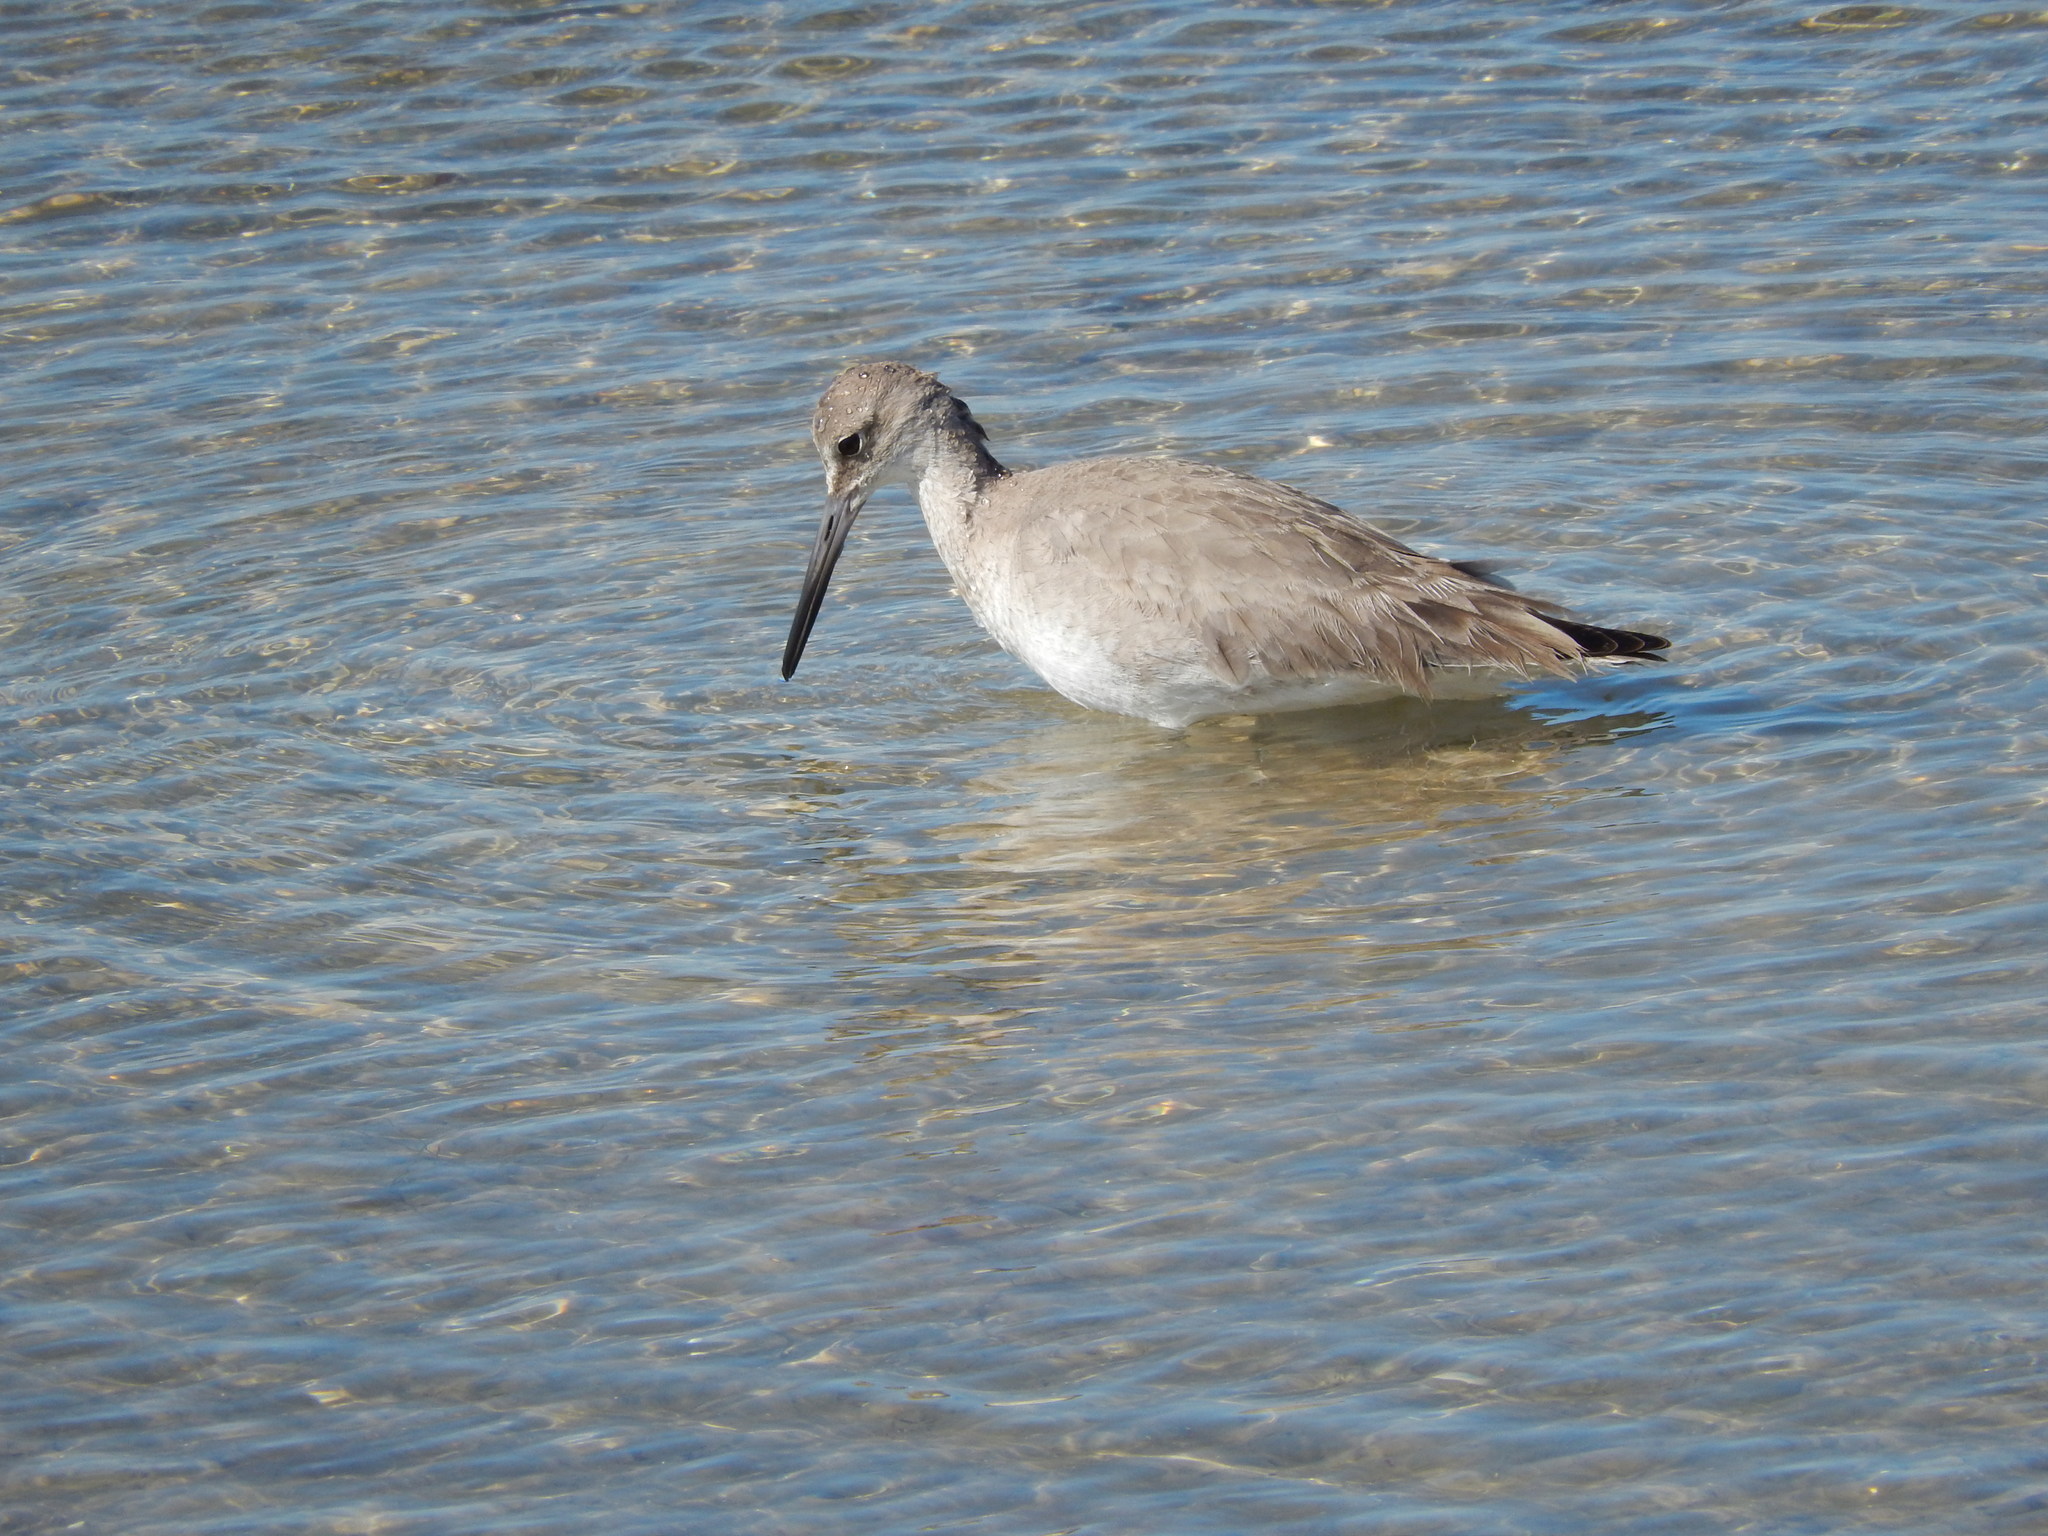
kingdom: Animalia
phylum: Chordata
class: Aves
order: Charadriiformes
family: Scolopacidae
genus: Tringa
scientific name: Tringa semipalmata
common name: Willet
